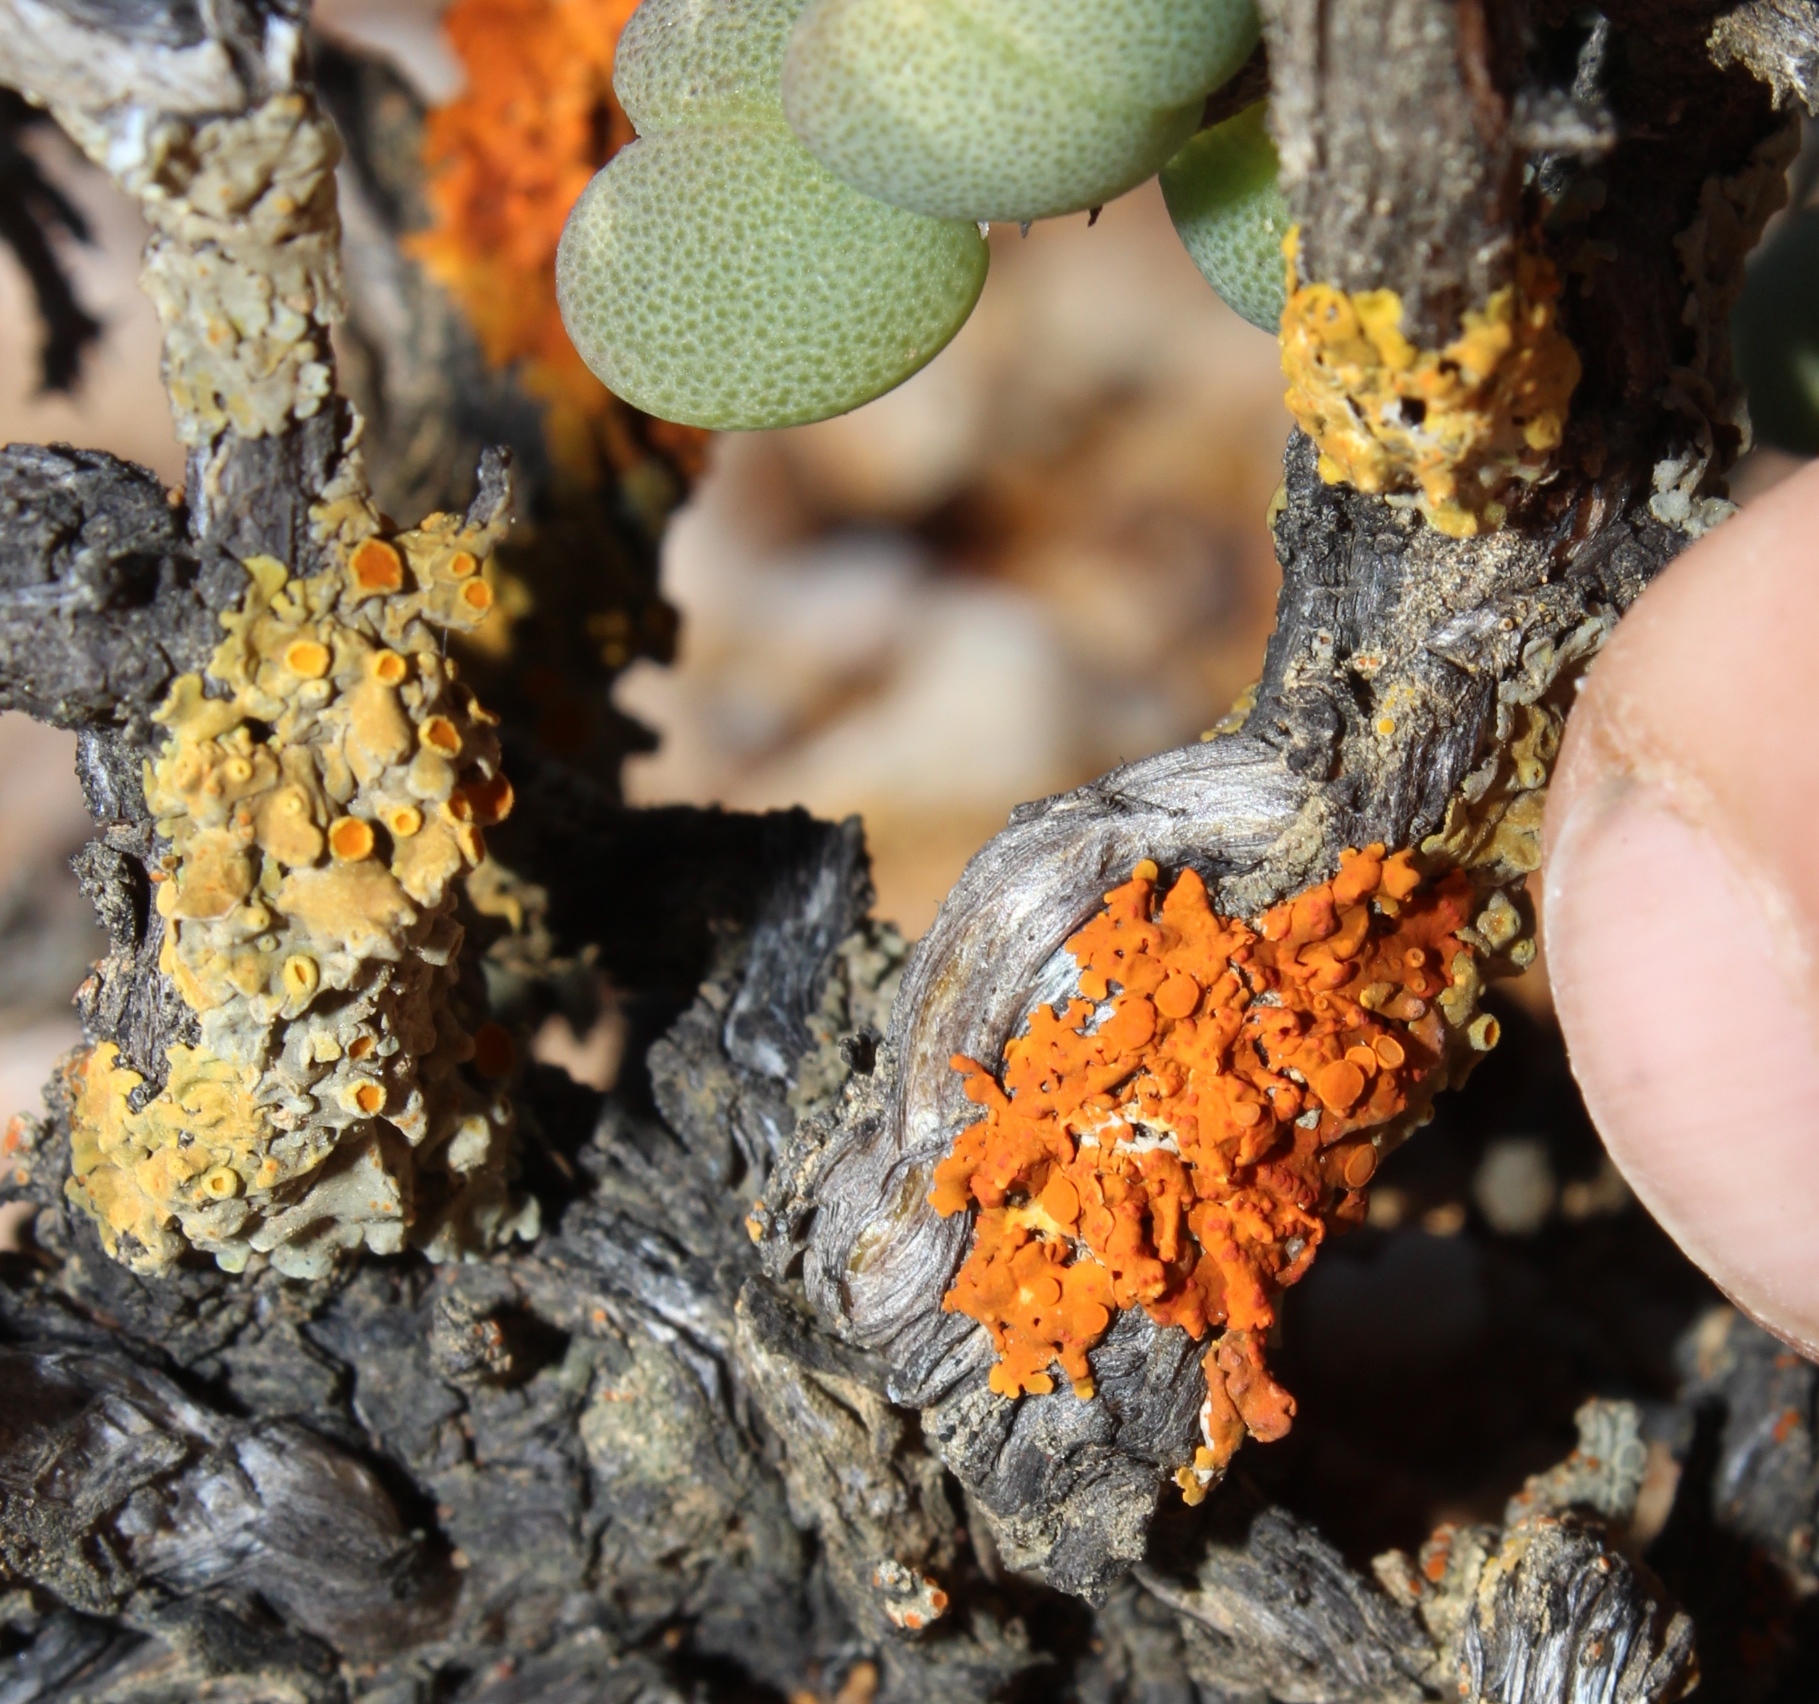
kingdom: Fungi
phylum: Ascomycota
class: Lecanoromycetes
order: Teloschistales
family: Teloschistaceae
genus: Langeottia
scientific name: Langeottia hirsuta
